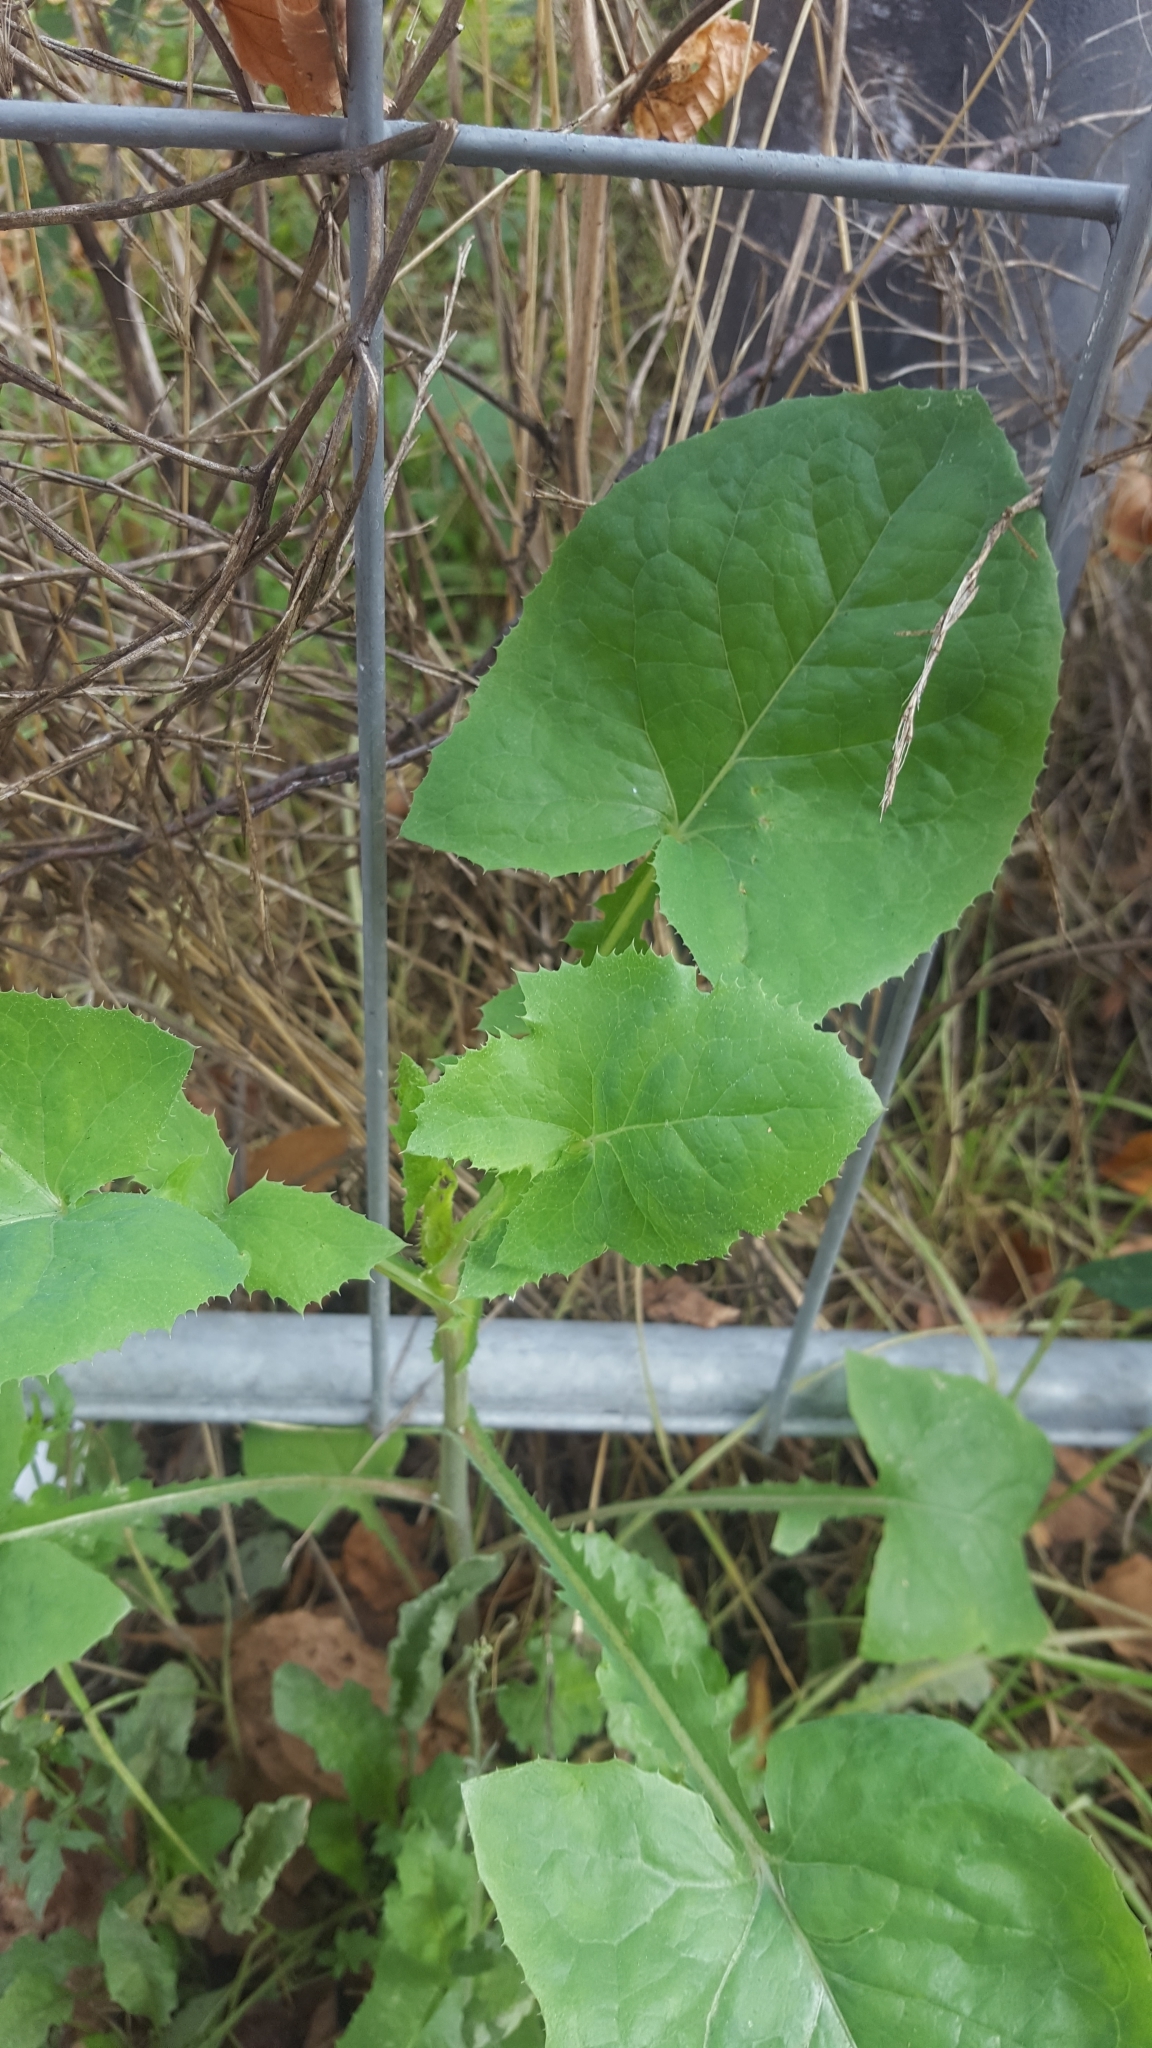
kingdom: Plantae
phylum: Tracheophyta
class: Magnoliopsida
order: Asterales
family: Asteraceae
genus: Sonchus
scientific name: Sonchus oleraceus
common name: Common sowthistle
